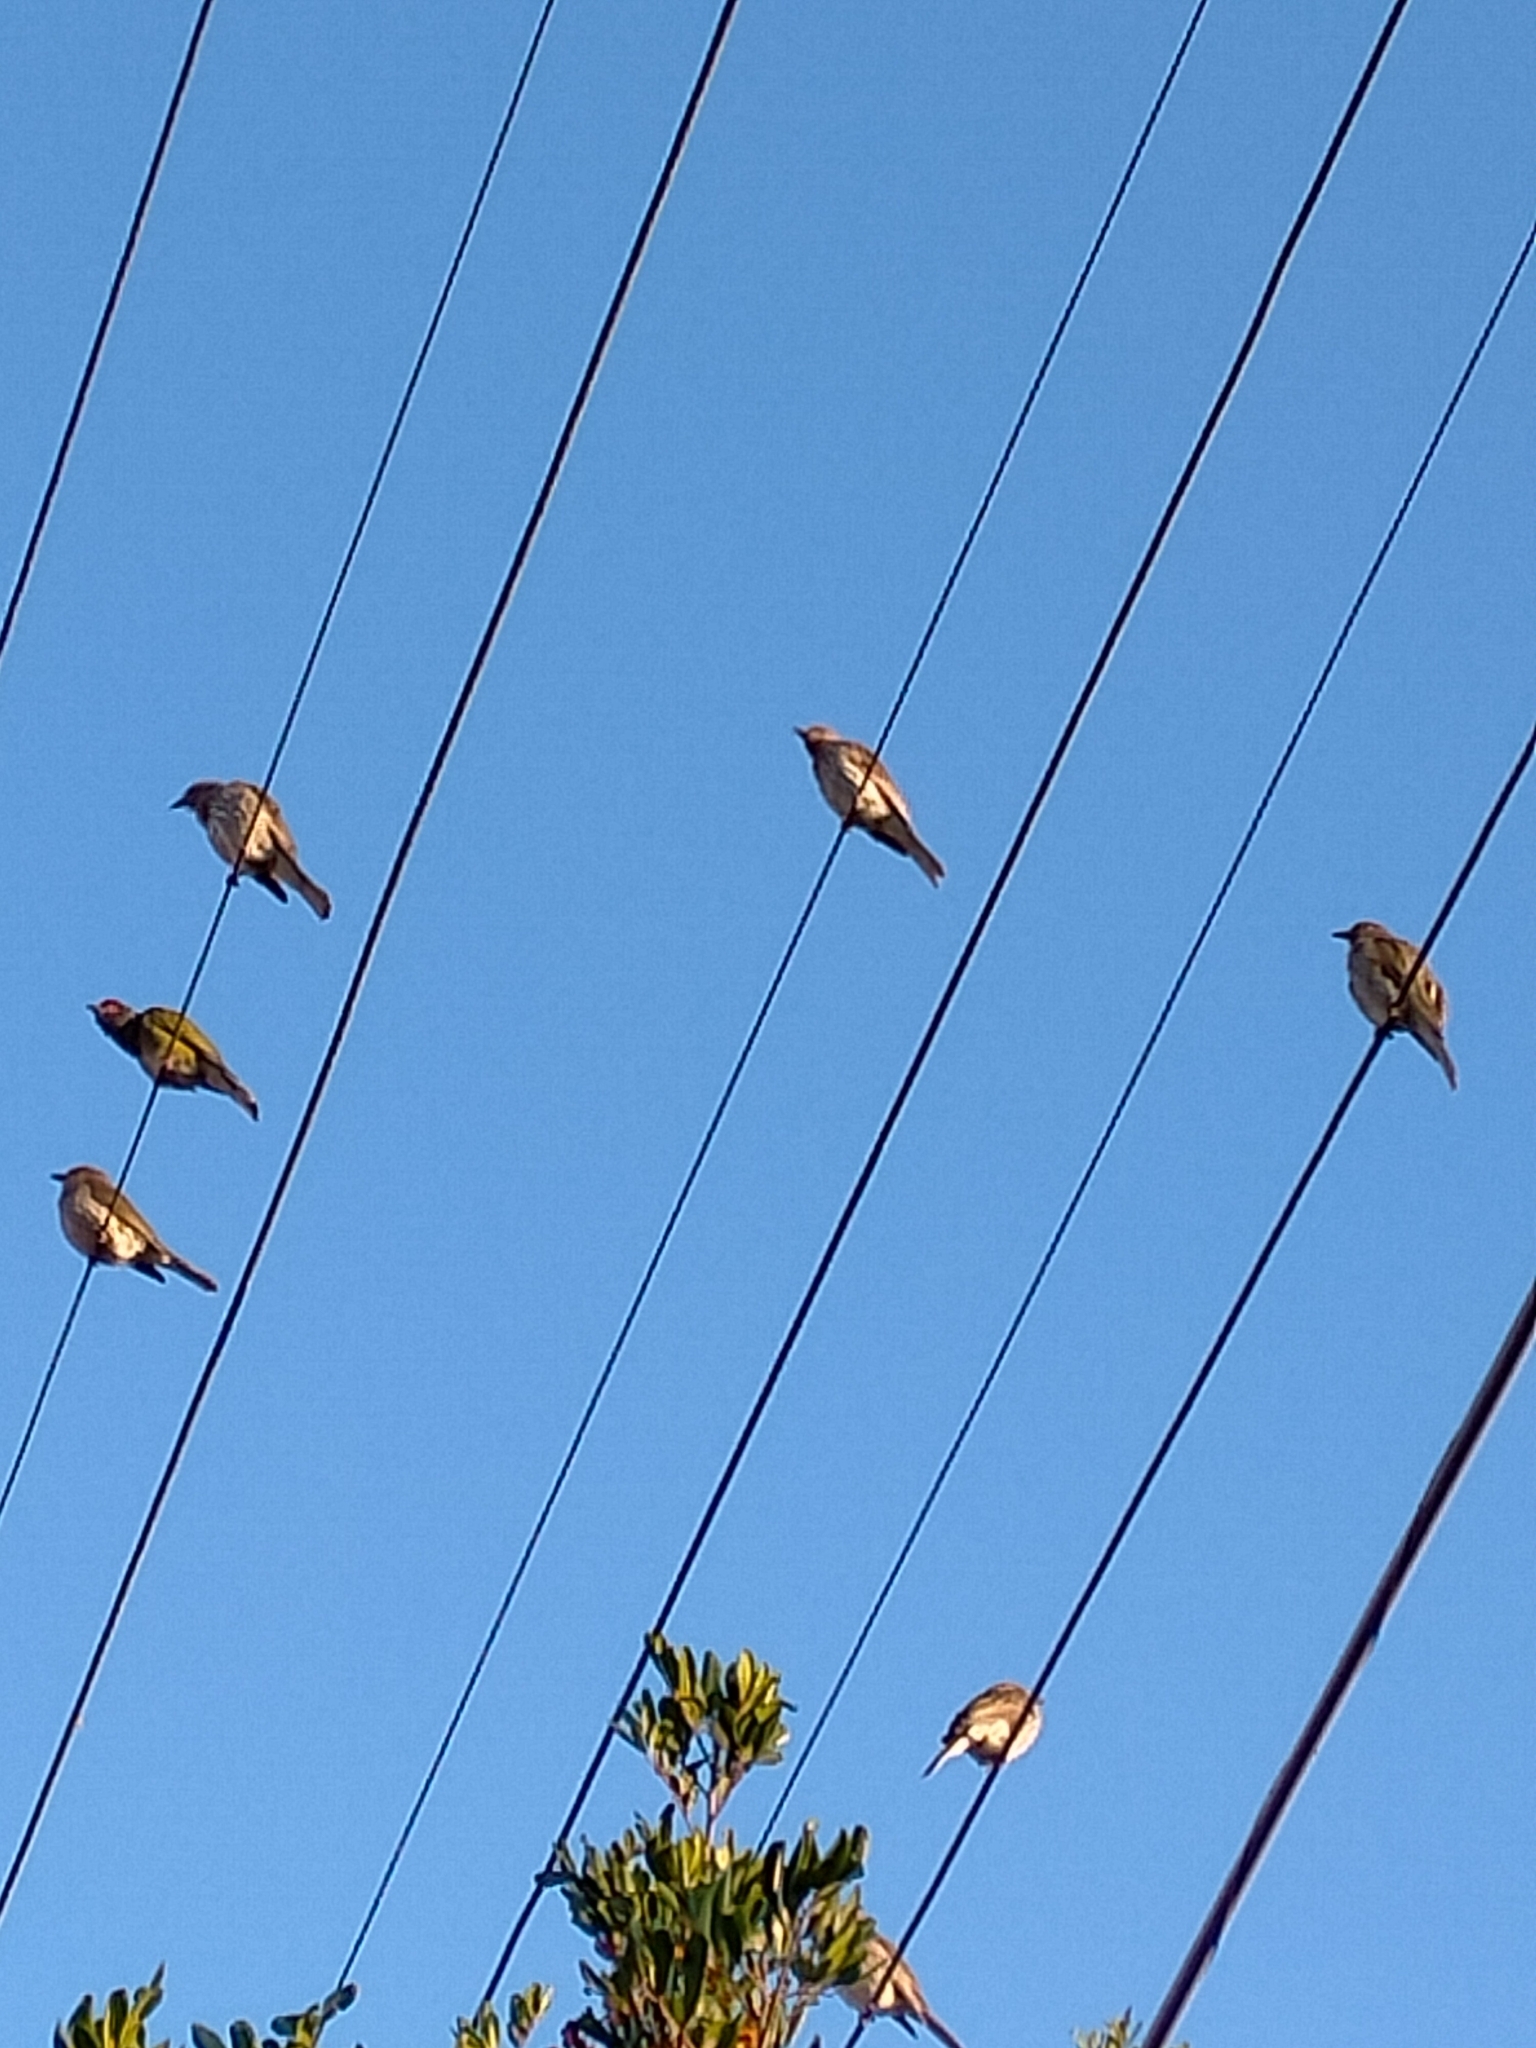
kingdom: Animalia
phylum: Chordata
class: Aves
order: Passeriformes
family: Oriolidae
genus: Sphecotheres
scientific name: Sphecotheres vieilloti
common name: Australasian figbird
